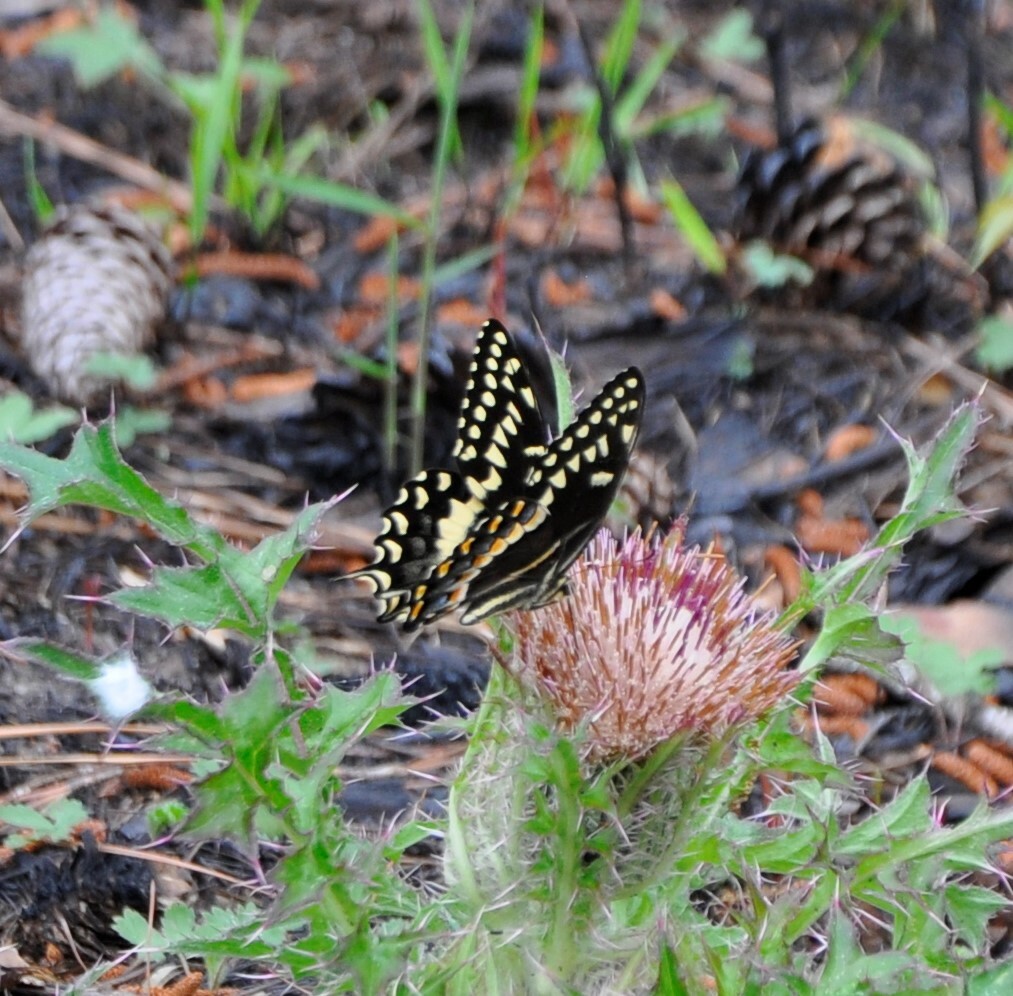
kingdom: Animalia
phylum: Arthropoda
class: Insecta
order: Lepidoptera
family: Papilionidae
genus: Papilio
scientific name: Papilio palamedes
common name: Palamedes swallowtail
